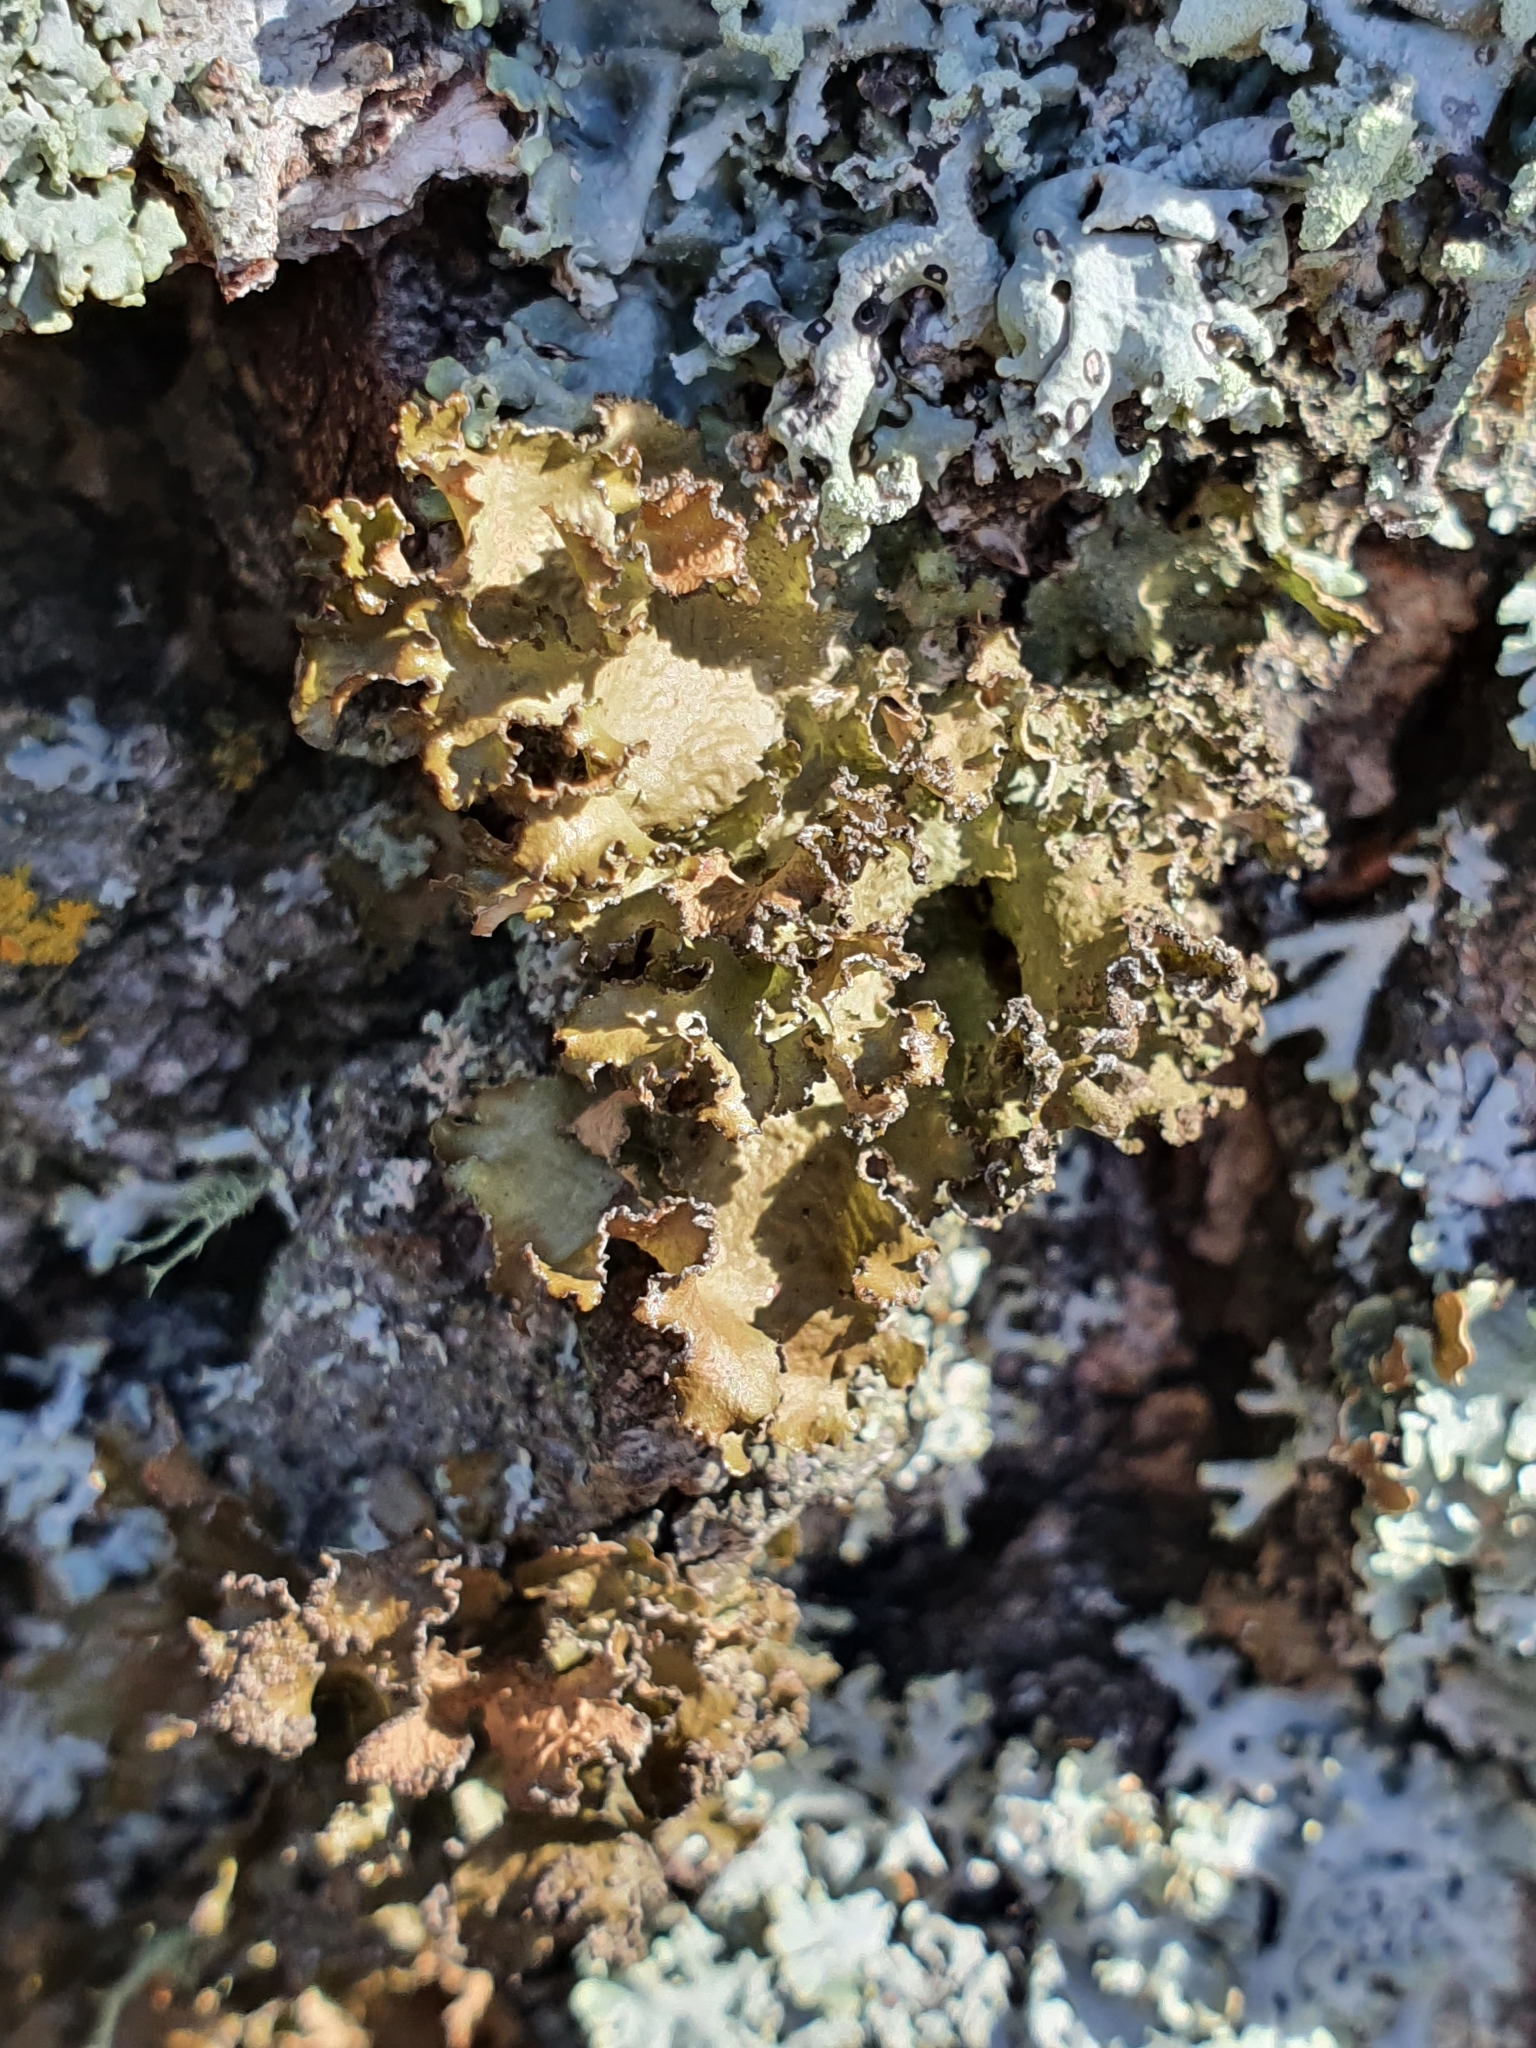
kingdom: Fungi
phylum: Ascomycota
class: Lecanoromycetes
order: Lecanorales
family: Parmeliaceae
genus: Nephromopsis
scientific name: Nephromopsis chlorophylla
